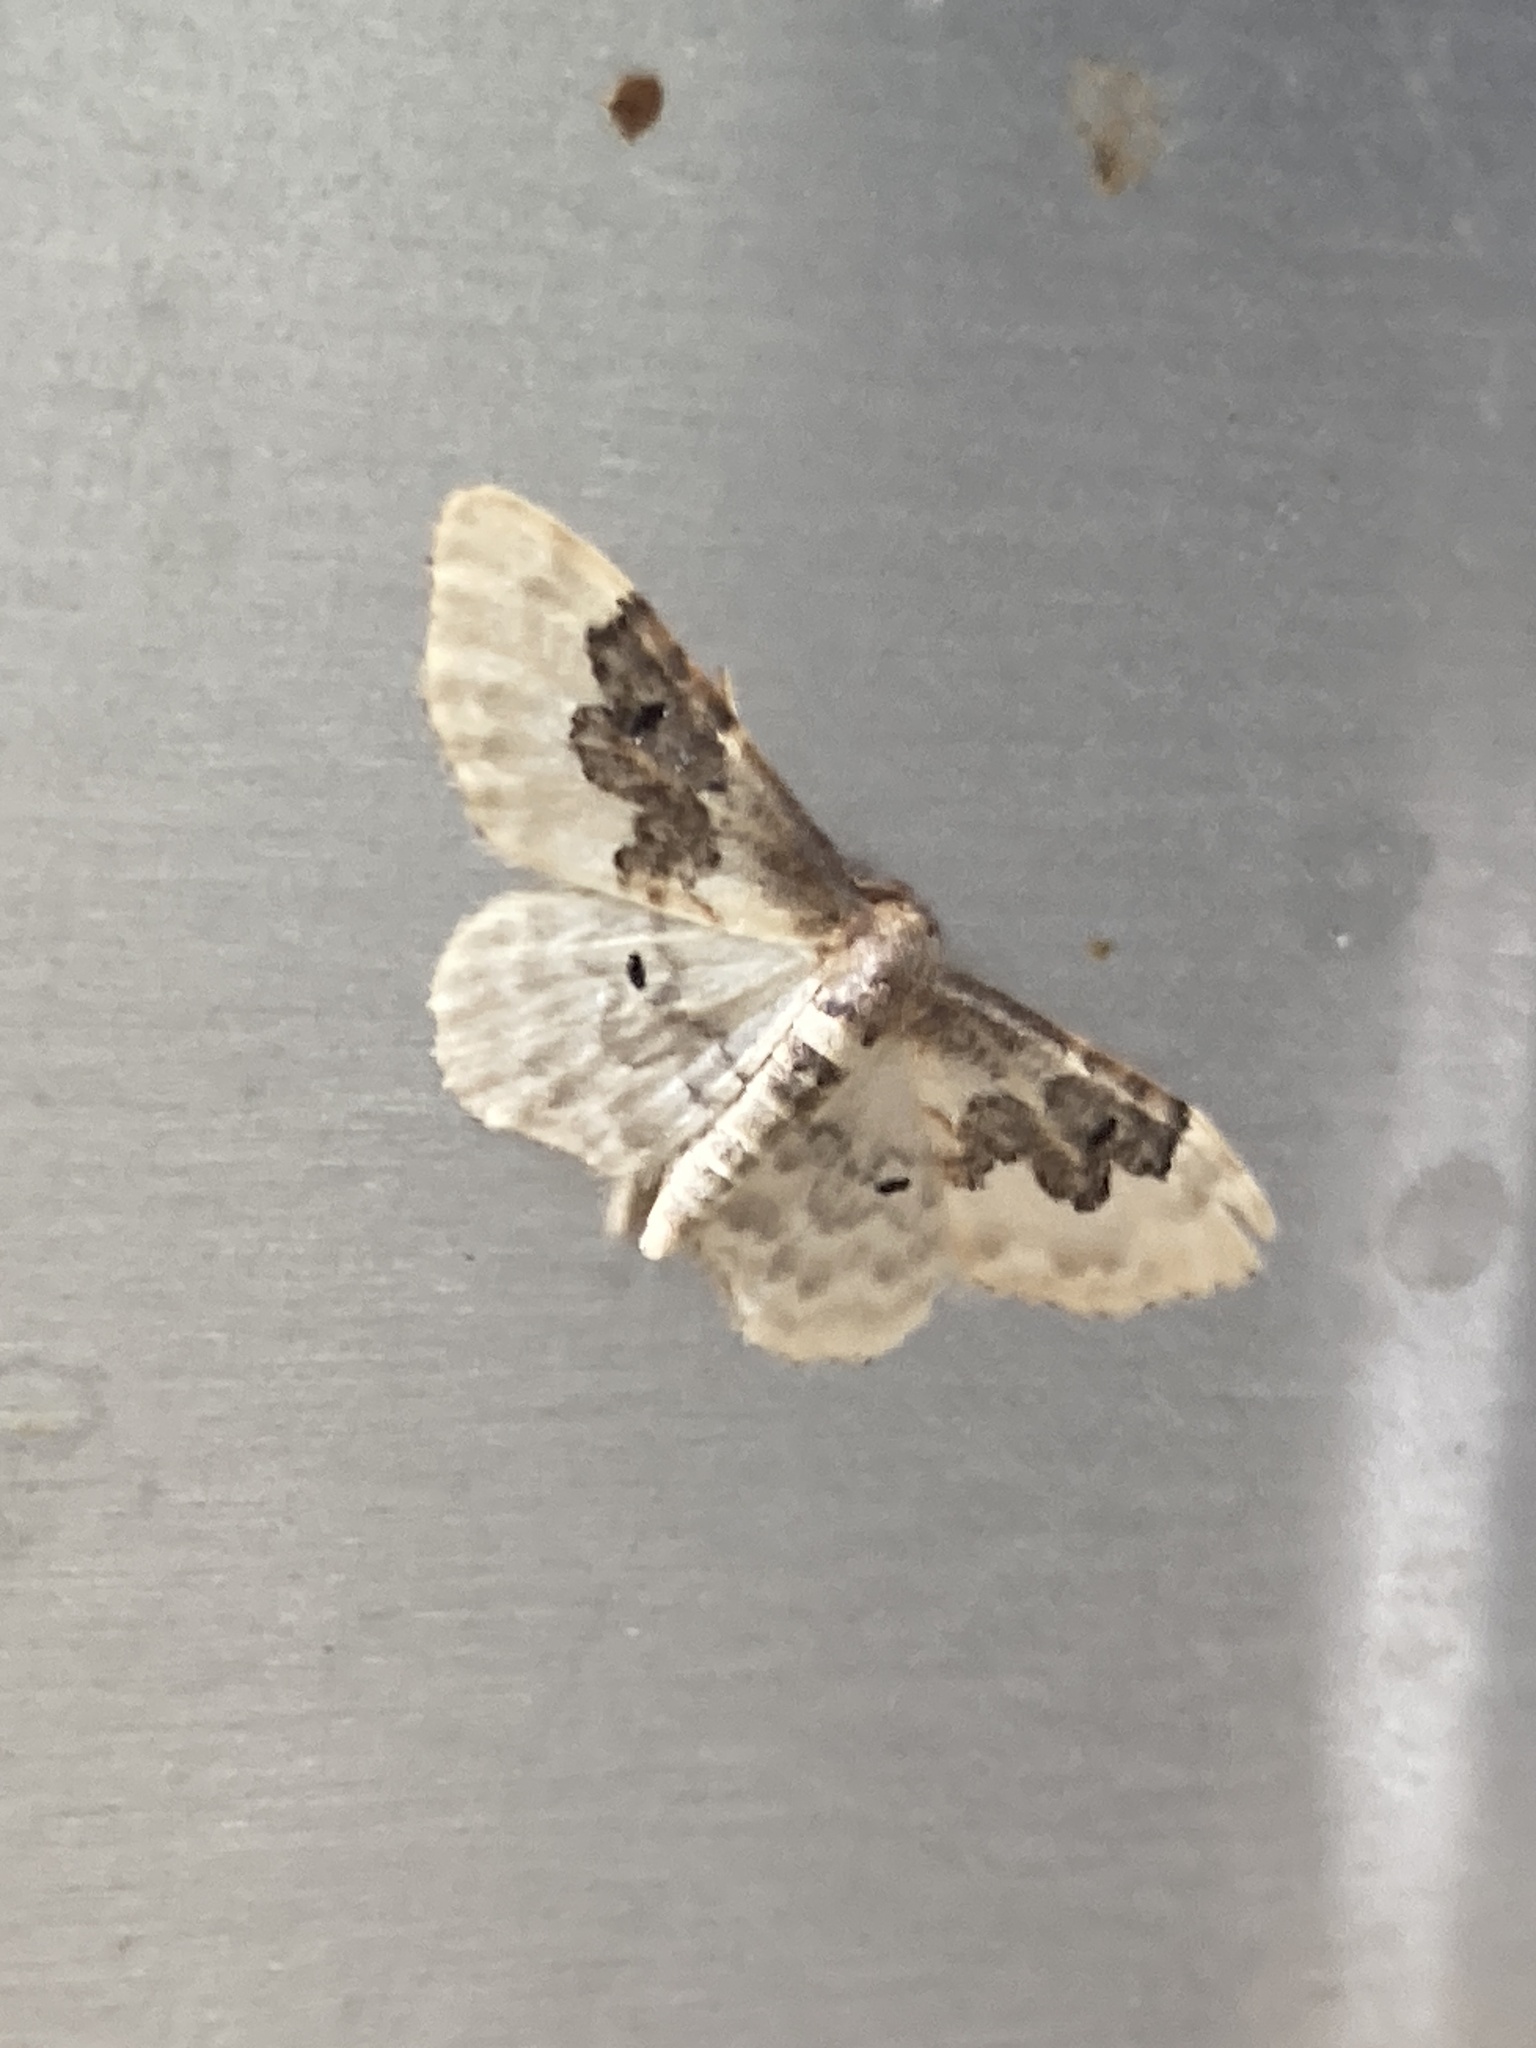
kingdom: Animalia
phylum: Arthropoda
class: Insecta
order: Lepidoptera
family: Geometridae
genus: Idaea
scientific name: Idaea rusticata
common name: Least carpet
